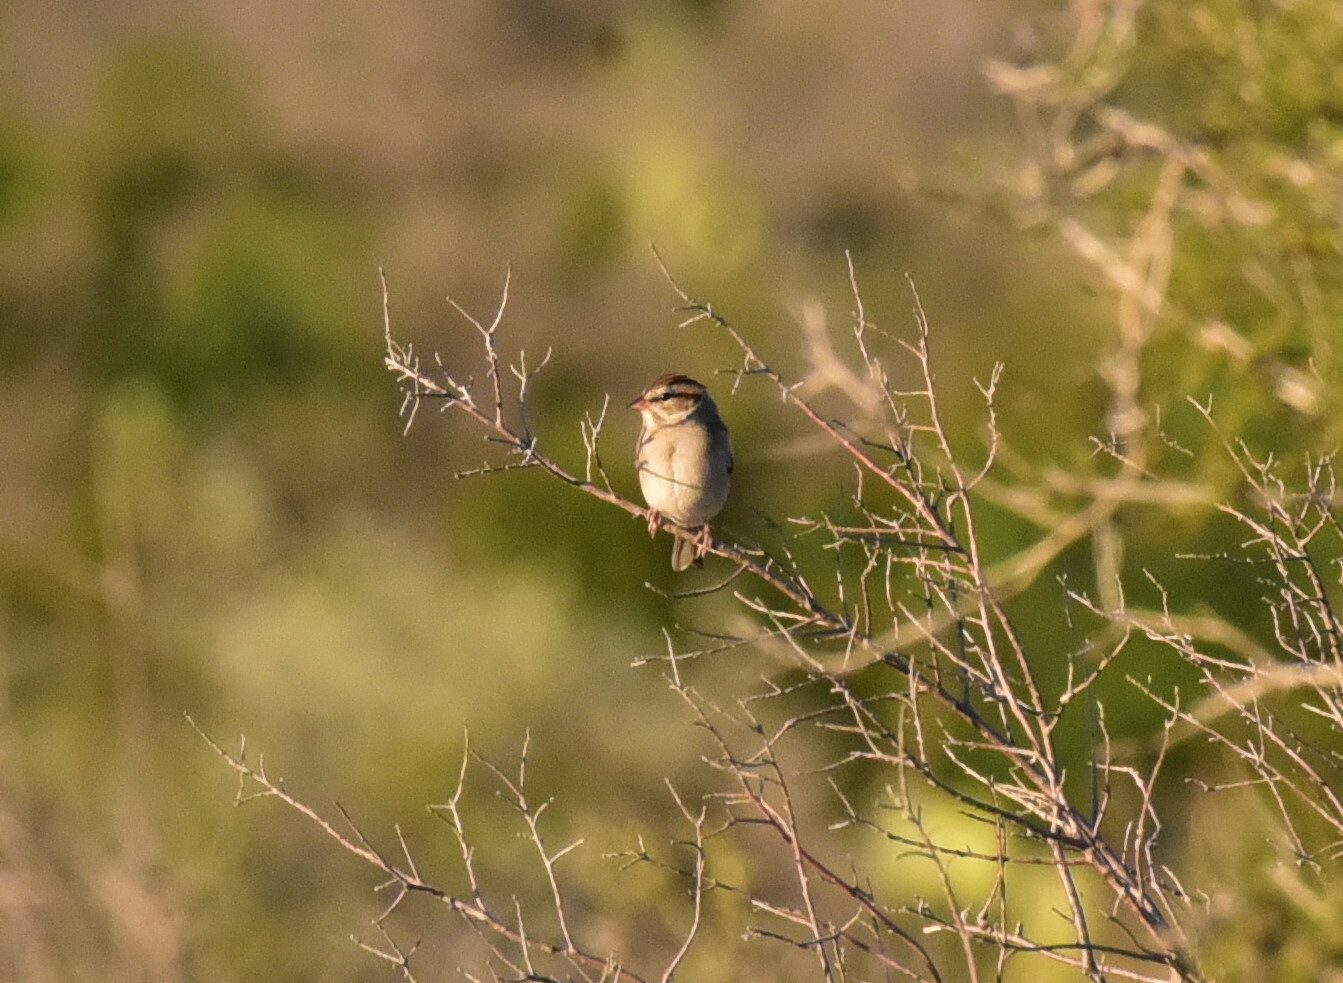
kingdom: Animalia
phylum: Chordata
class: Aves
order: Passeriformes
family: Passerellidae
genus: Spizella
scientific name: Spizella passerina
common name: Chipping sparrow
